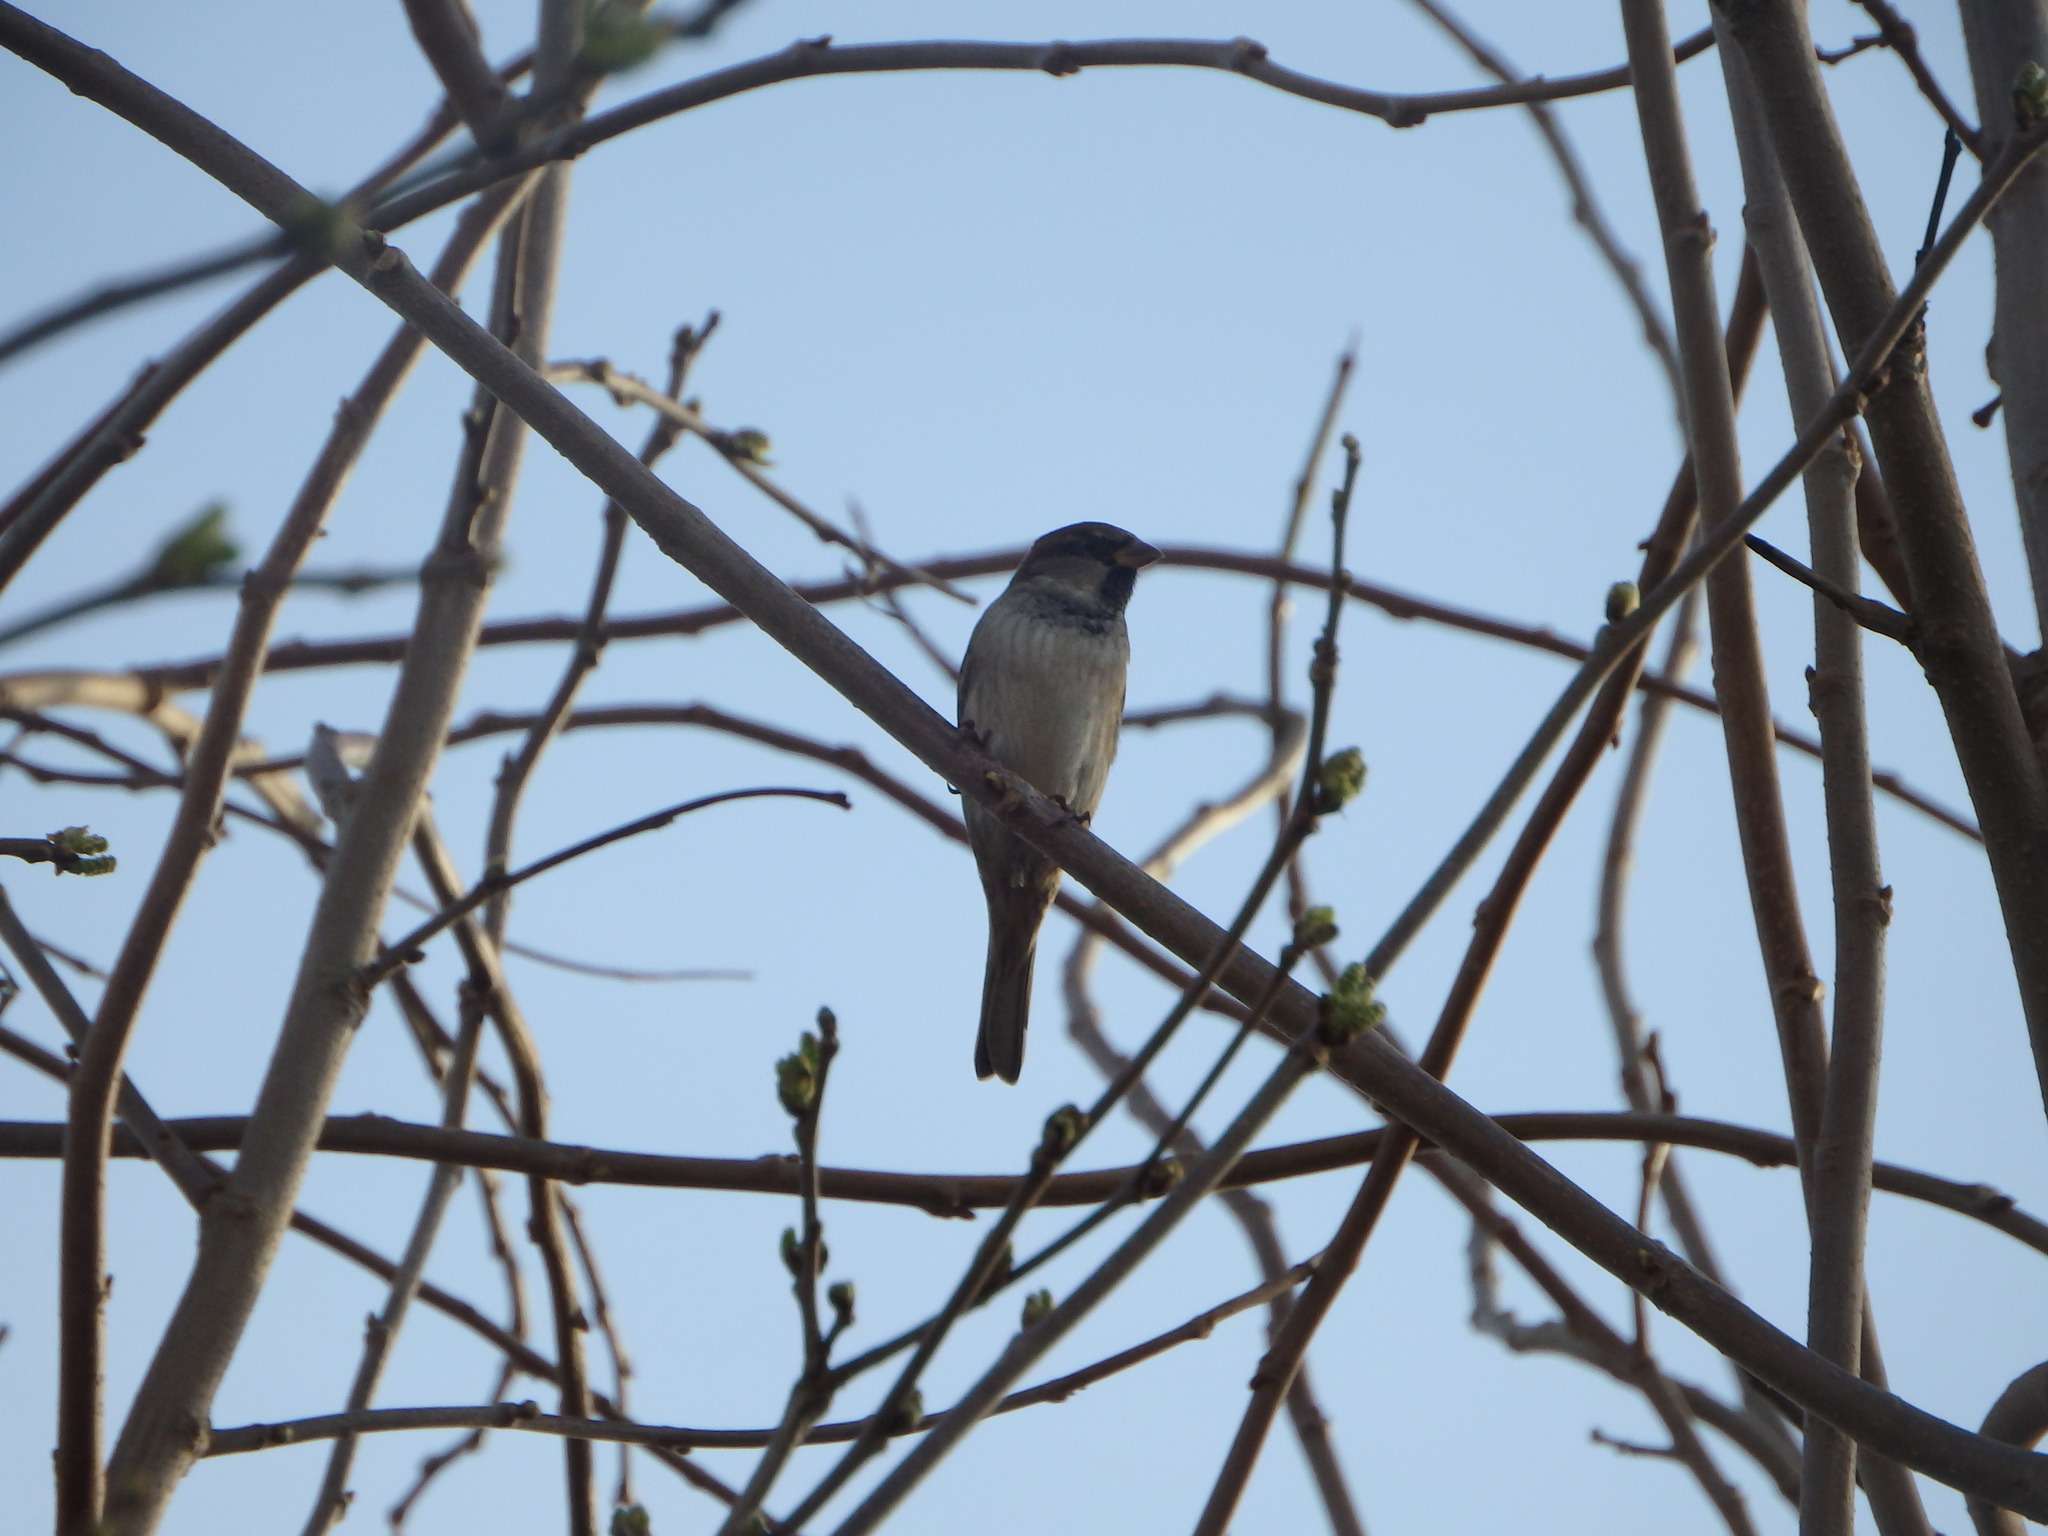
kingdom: Animalia
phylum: Chordata
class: Aves
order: Passeriformes
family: Passeridae
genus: Passer
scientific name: Passer domesticus
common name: House sparrow
